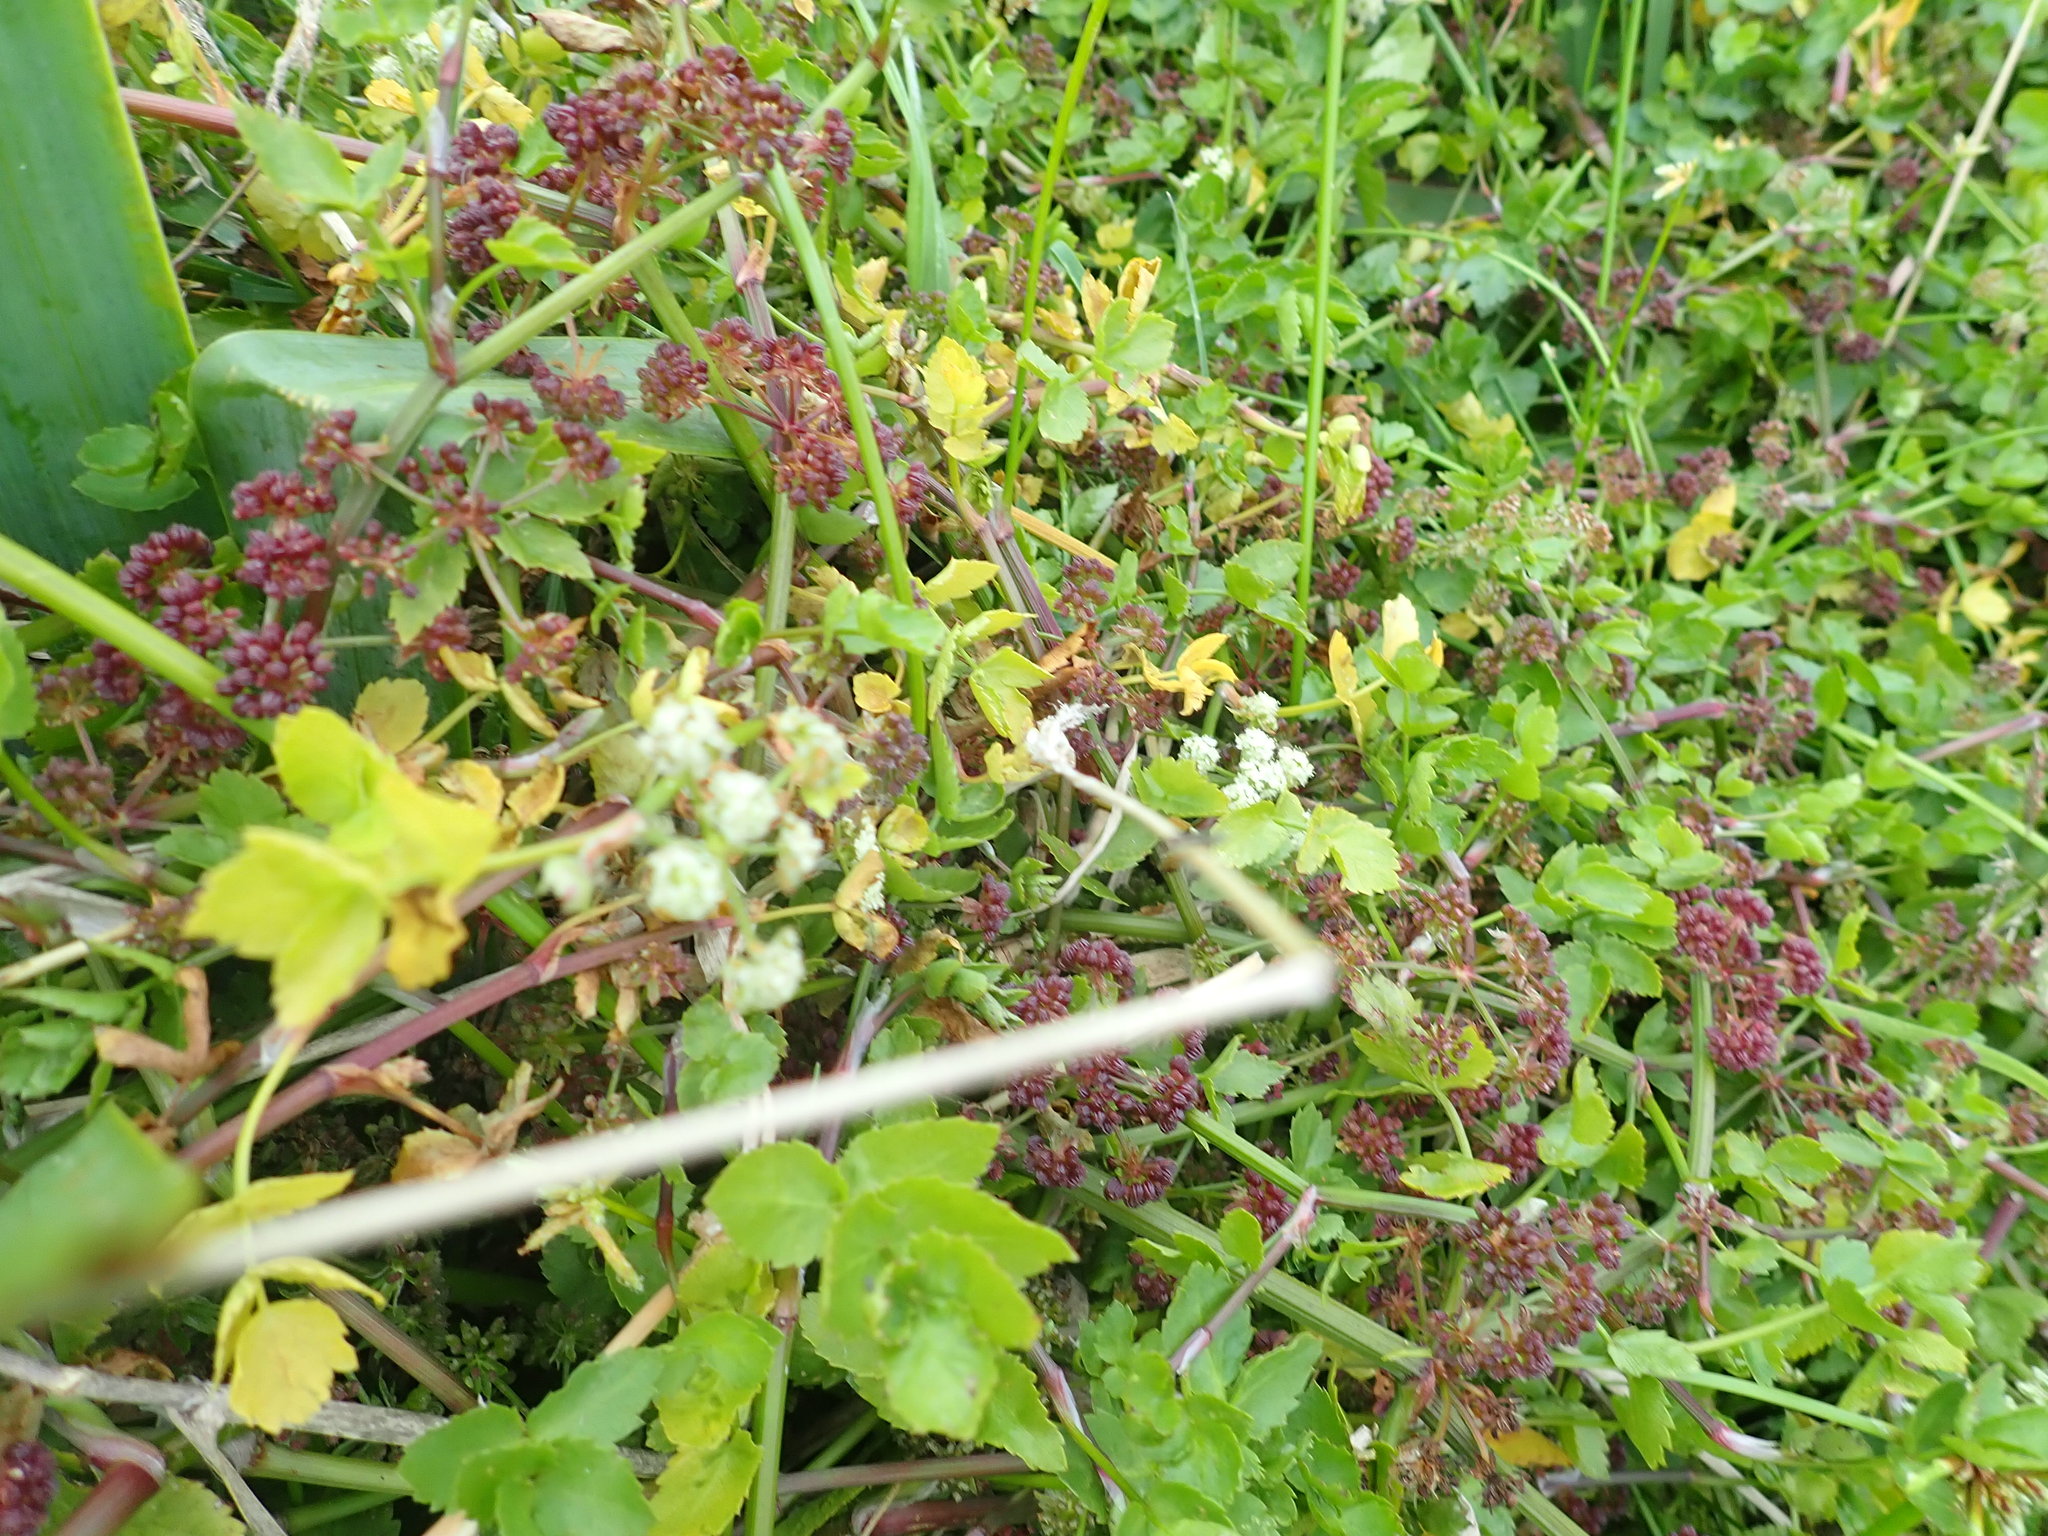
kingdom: Plantae
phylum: Tracheophyta
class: Magnoliopsida
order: Apiales
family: Apiaceae
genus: Helosciadium
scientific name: Helosciadium nodiflorum
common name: Fool's-watercress
